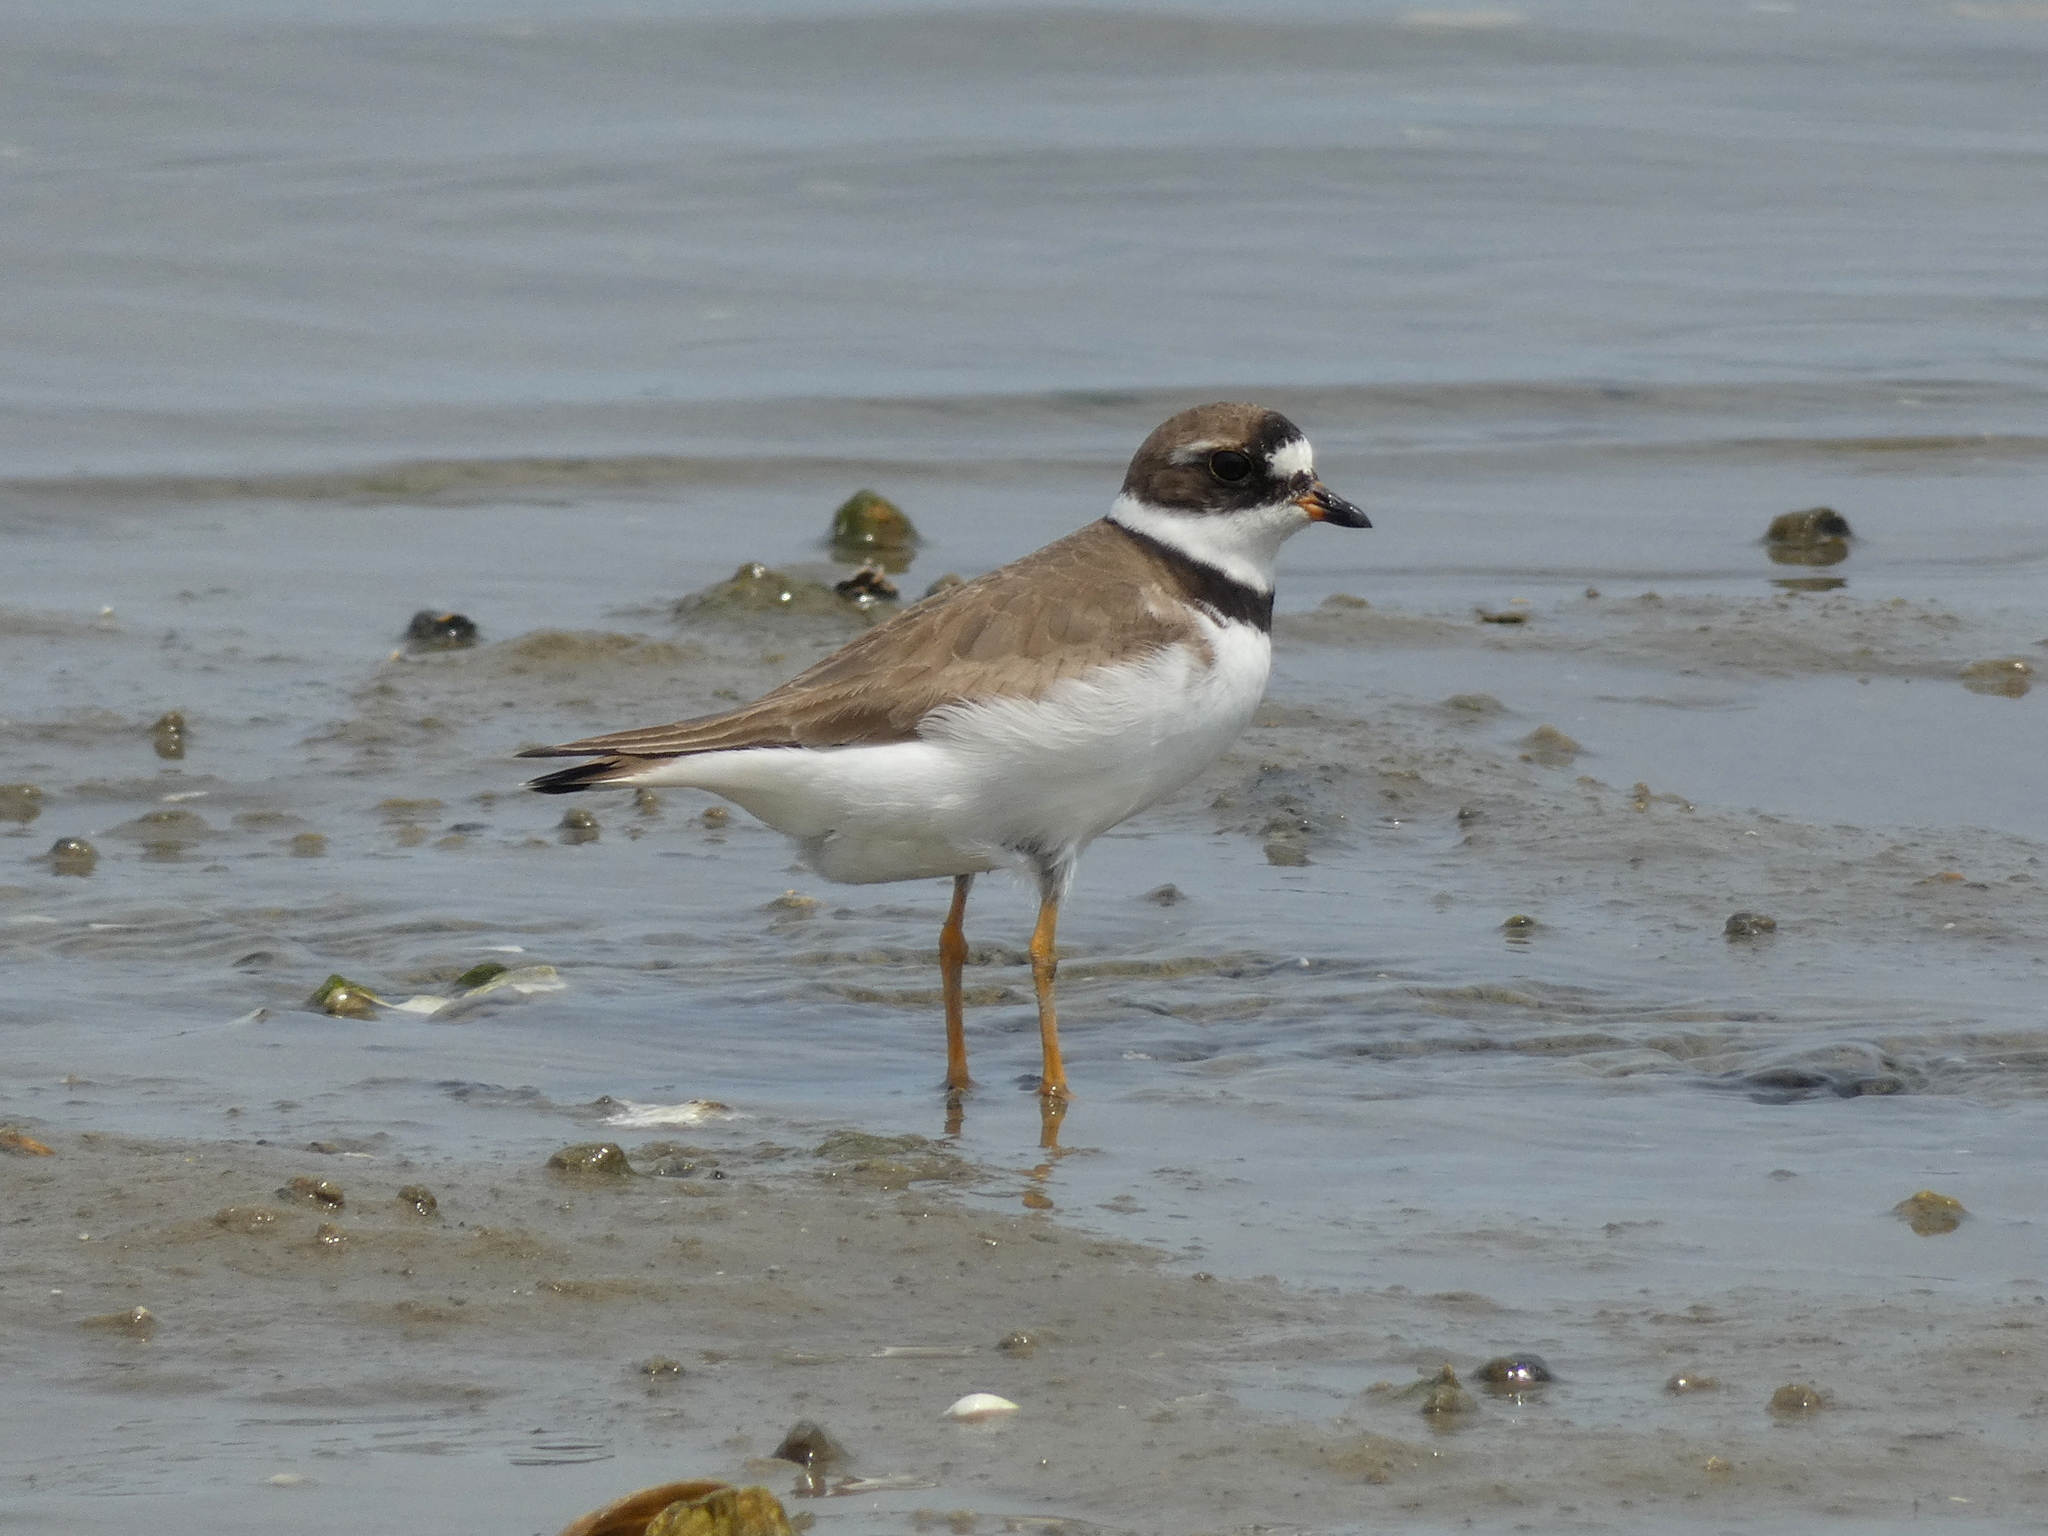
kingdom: Animalia
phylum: Chordata
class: Aves
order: Charadriiformes
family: Charadriidae
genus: Charadrius
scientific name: Charadrius semipalmatus
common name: Semipalmated plover
